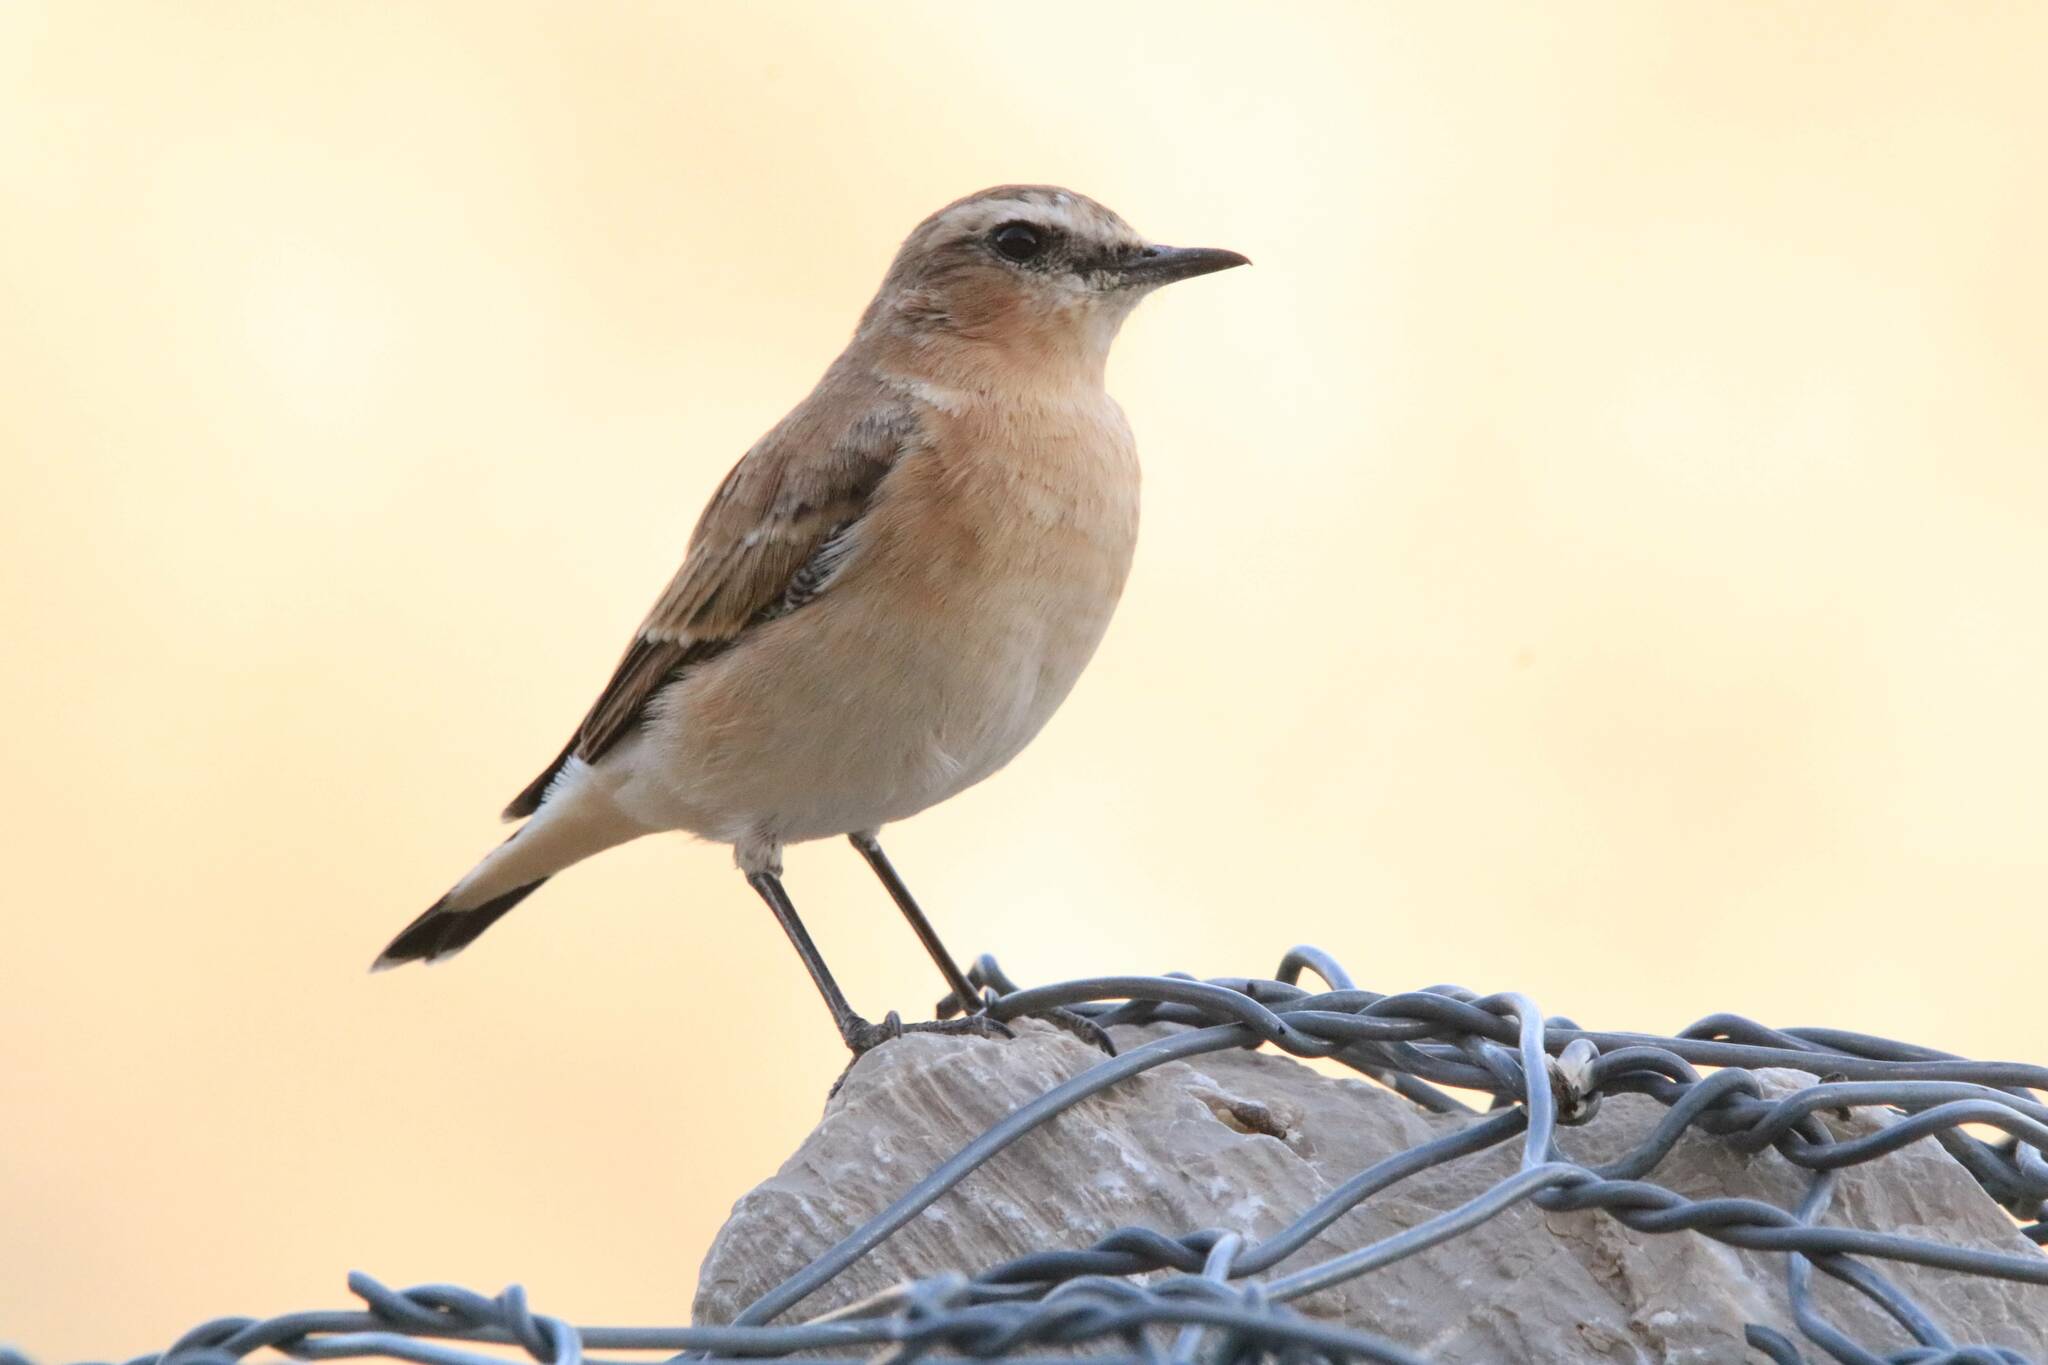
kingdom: Animalia
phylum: Chordata
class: Aves
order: Passeriformes
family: Muscicapidae
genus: Oenanthe
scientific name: Oenanthe oenanthe
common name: Northern wheatear
